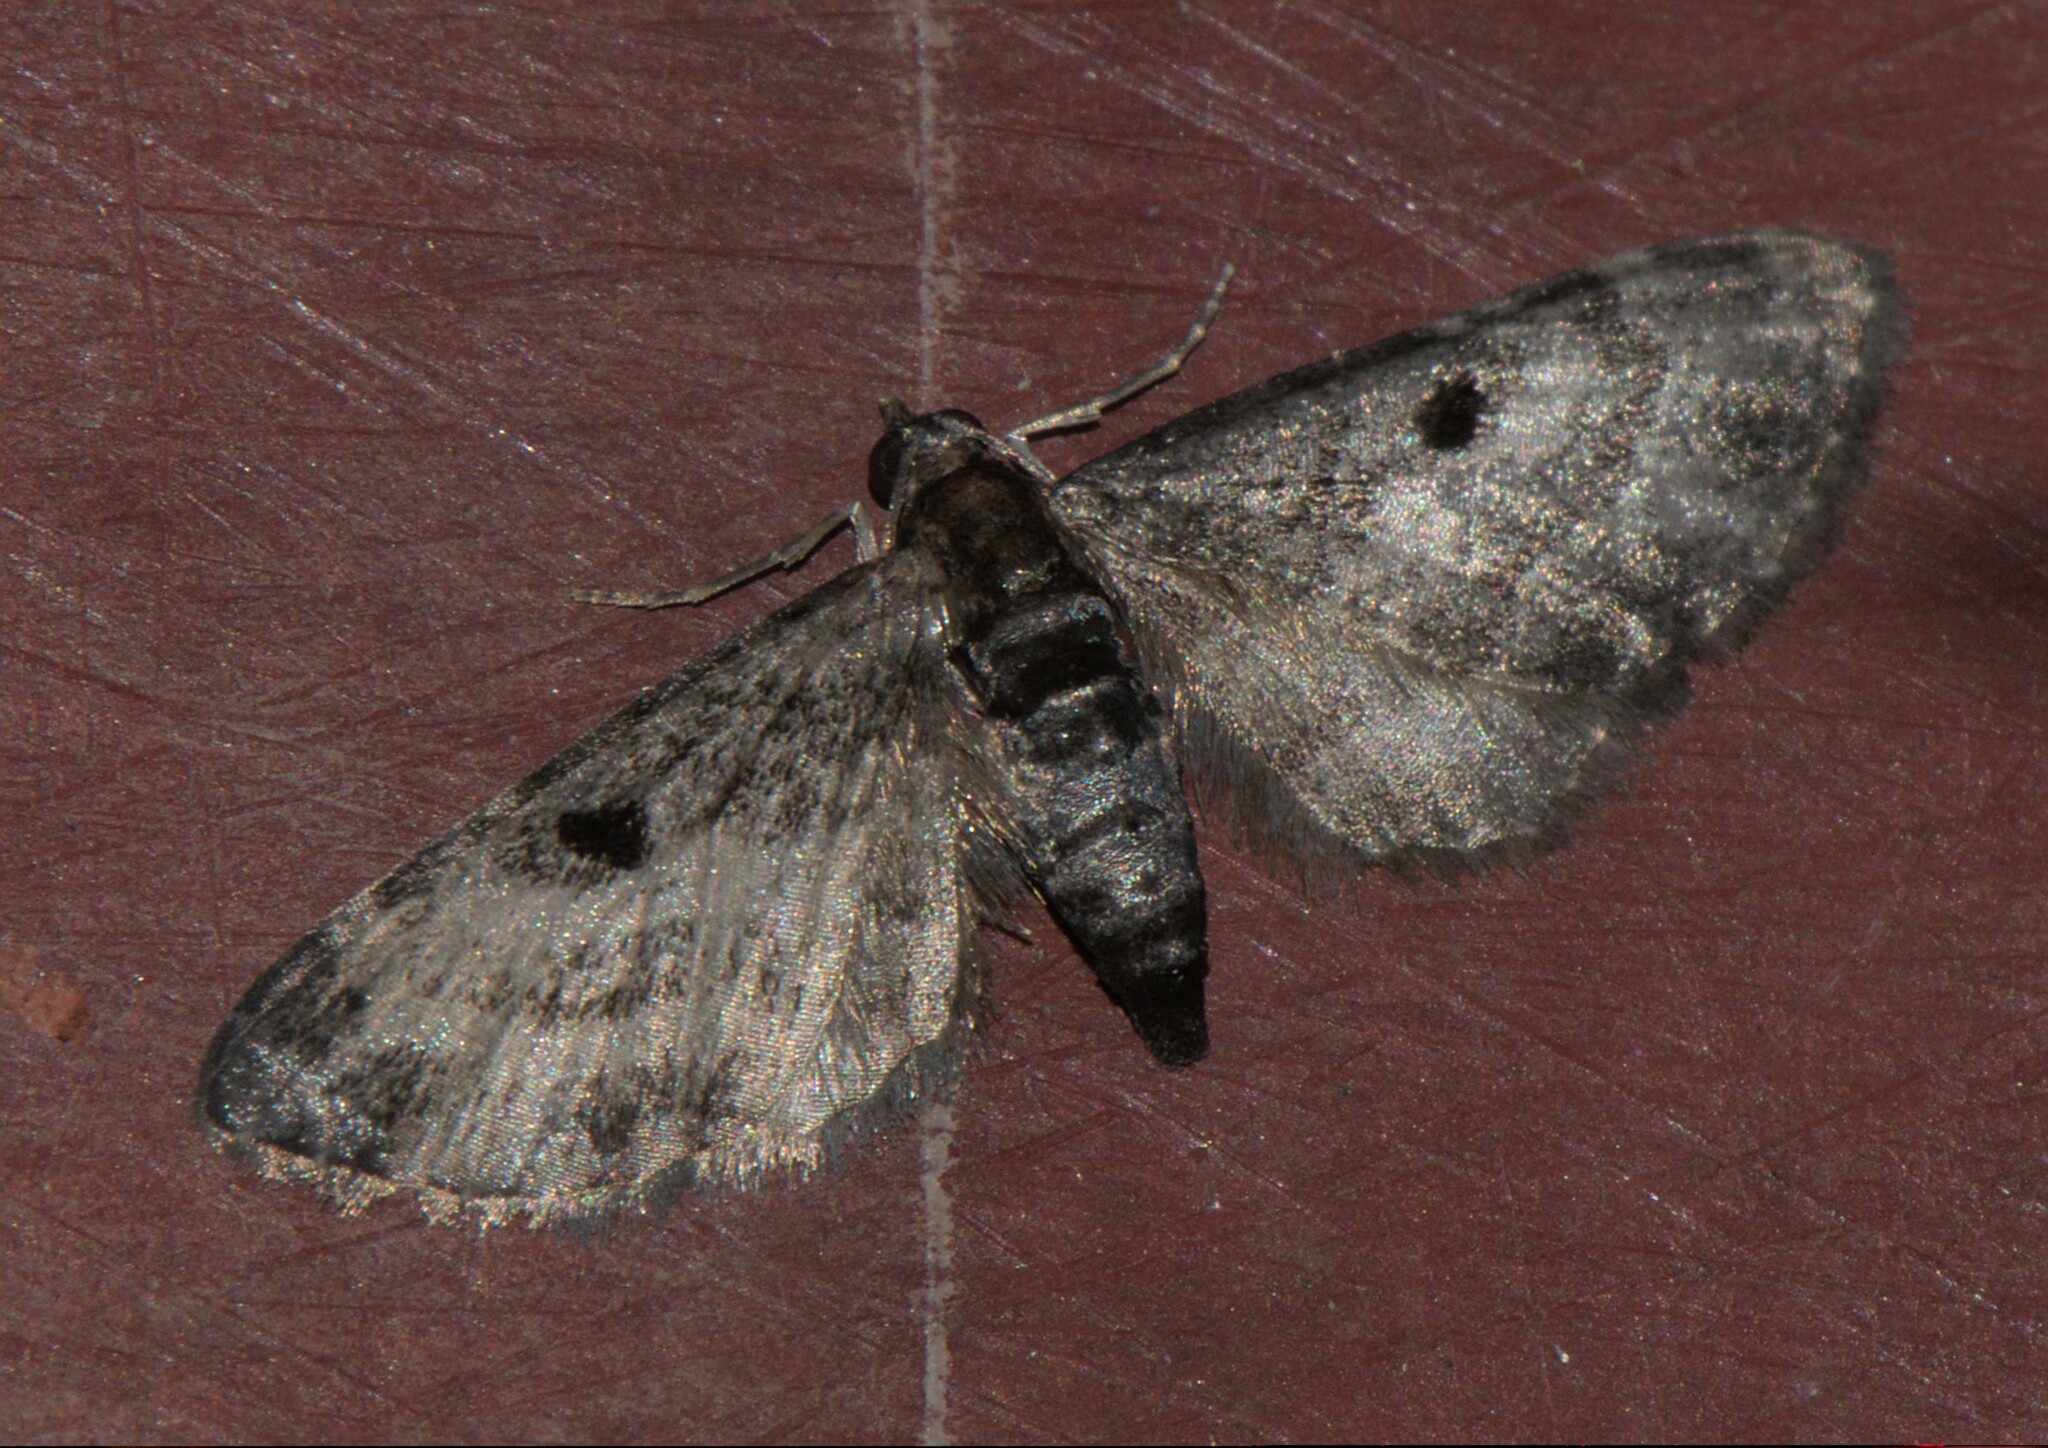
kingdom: Animalia
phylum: Arthropoda
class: Insecta
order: Lepidoptera
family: Geometridae
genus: Eupithecia
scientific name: Eupithecia atrisignis
